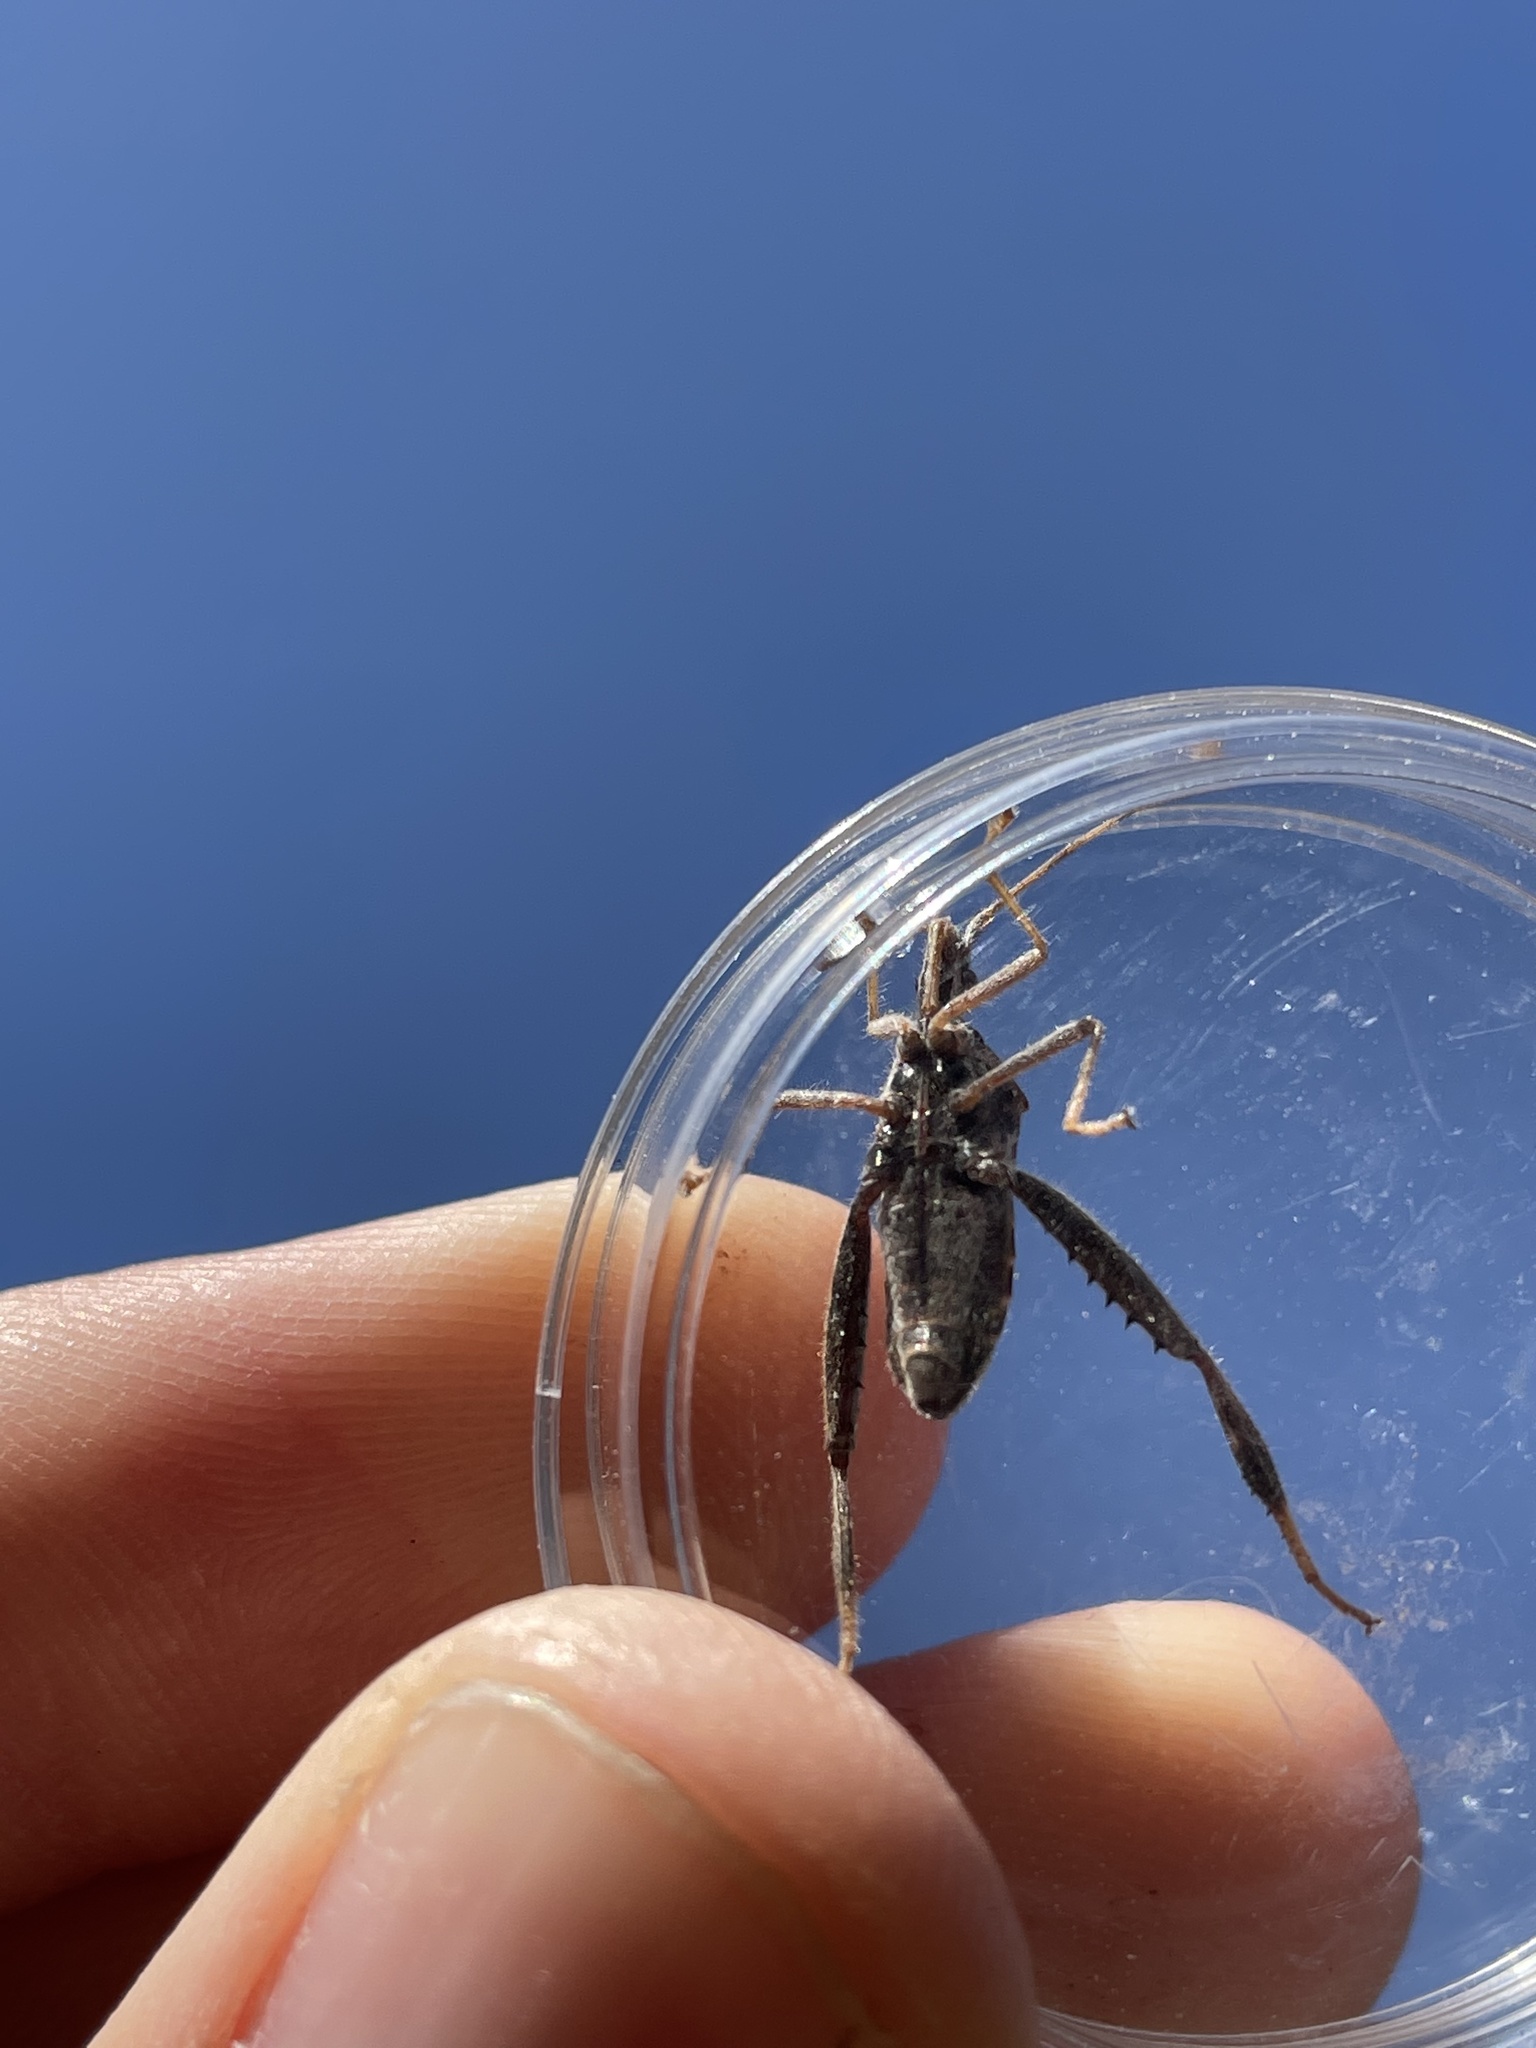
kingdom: Animalia
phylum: Arthropoda
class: Insecta
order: Hemiptera
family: Coreidae
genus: Narnia
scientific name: Narnia femorata
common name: Leaf-footed cactus bug
